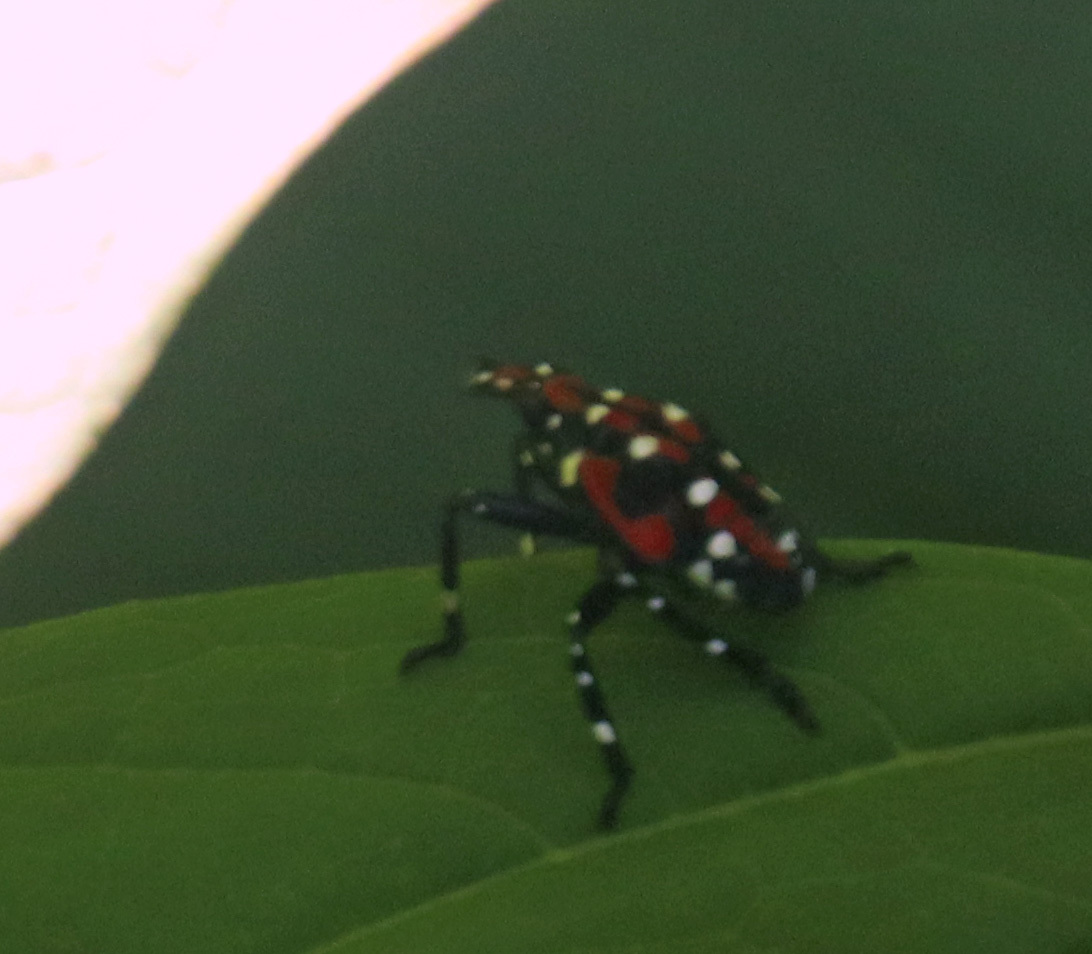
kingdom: Animalia
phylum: Arthropoda
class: Insecta
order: Hemiptera
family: Fulgoridae
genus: Lycorma
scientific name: Lycorma delicatula
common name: Spotted lanternfly
